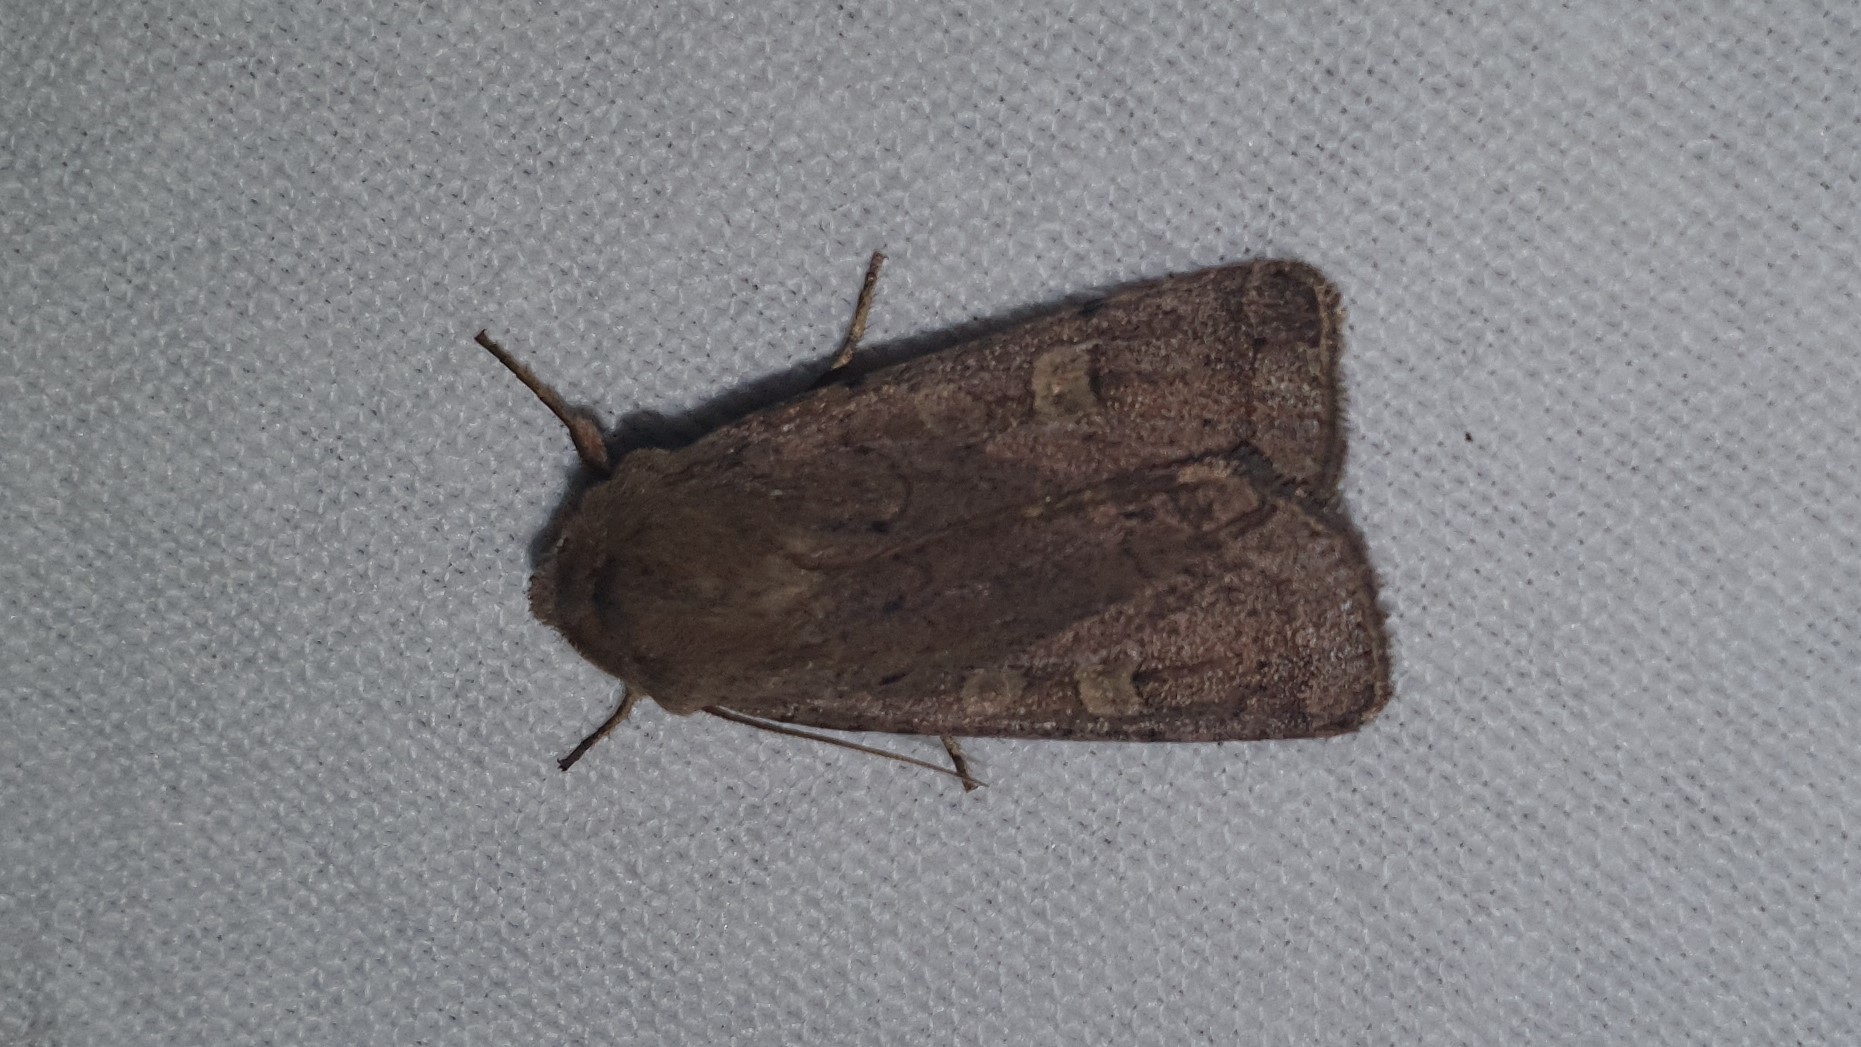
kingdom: Animalia
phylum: Arthropoda
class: Insecta
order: Lepidoptera
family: Noctuidae
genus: Xestia
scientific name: Xestia xanthographa
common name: Square-spot rustic
